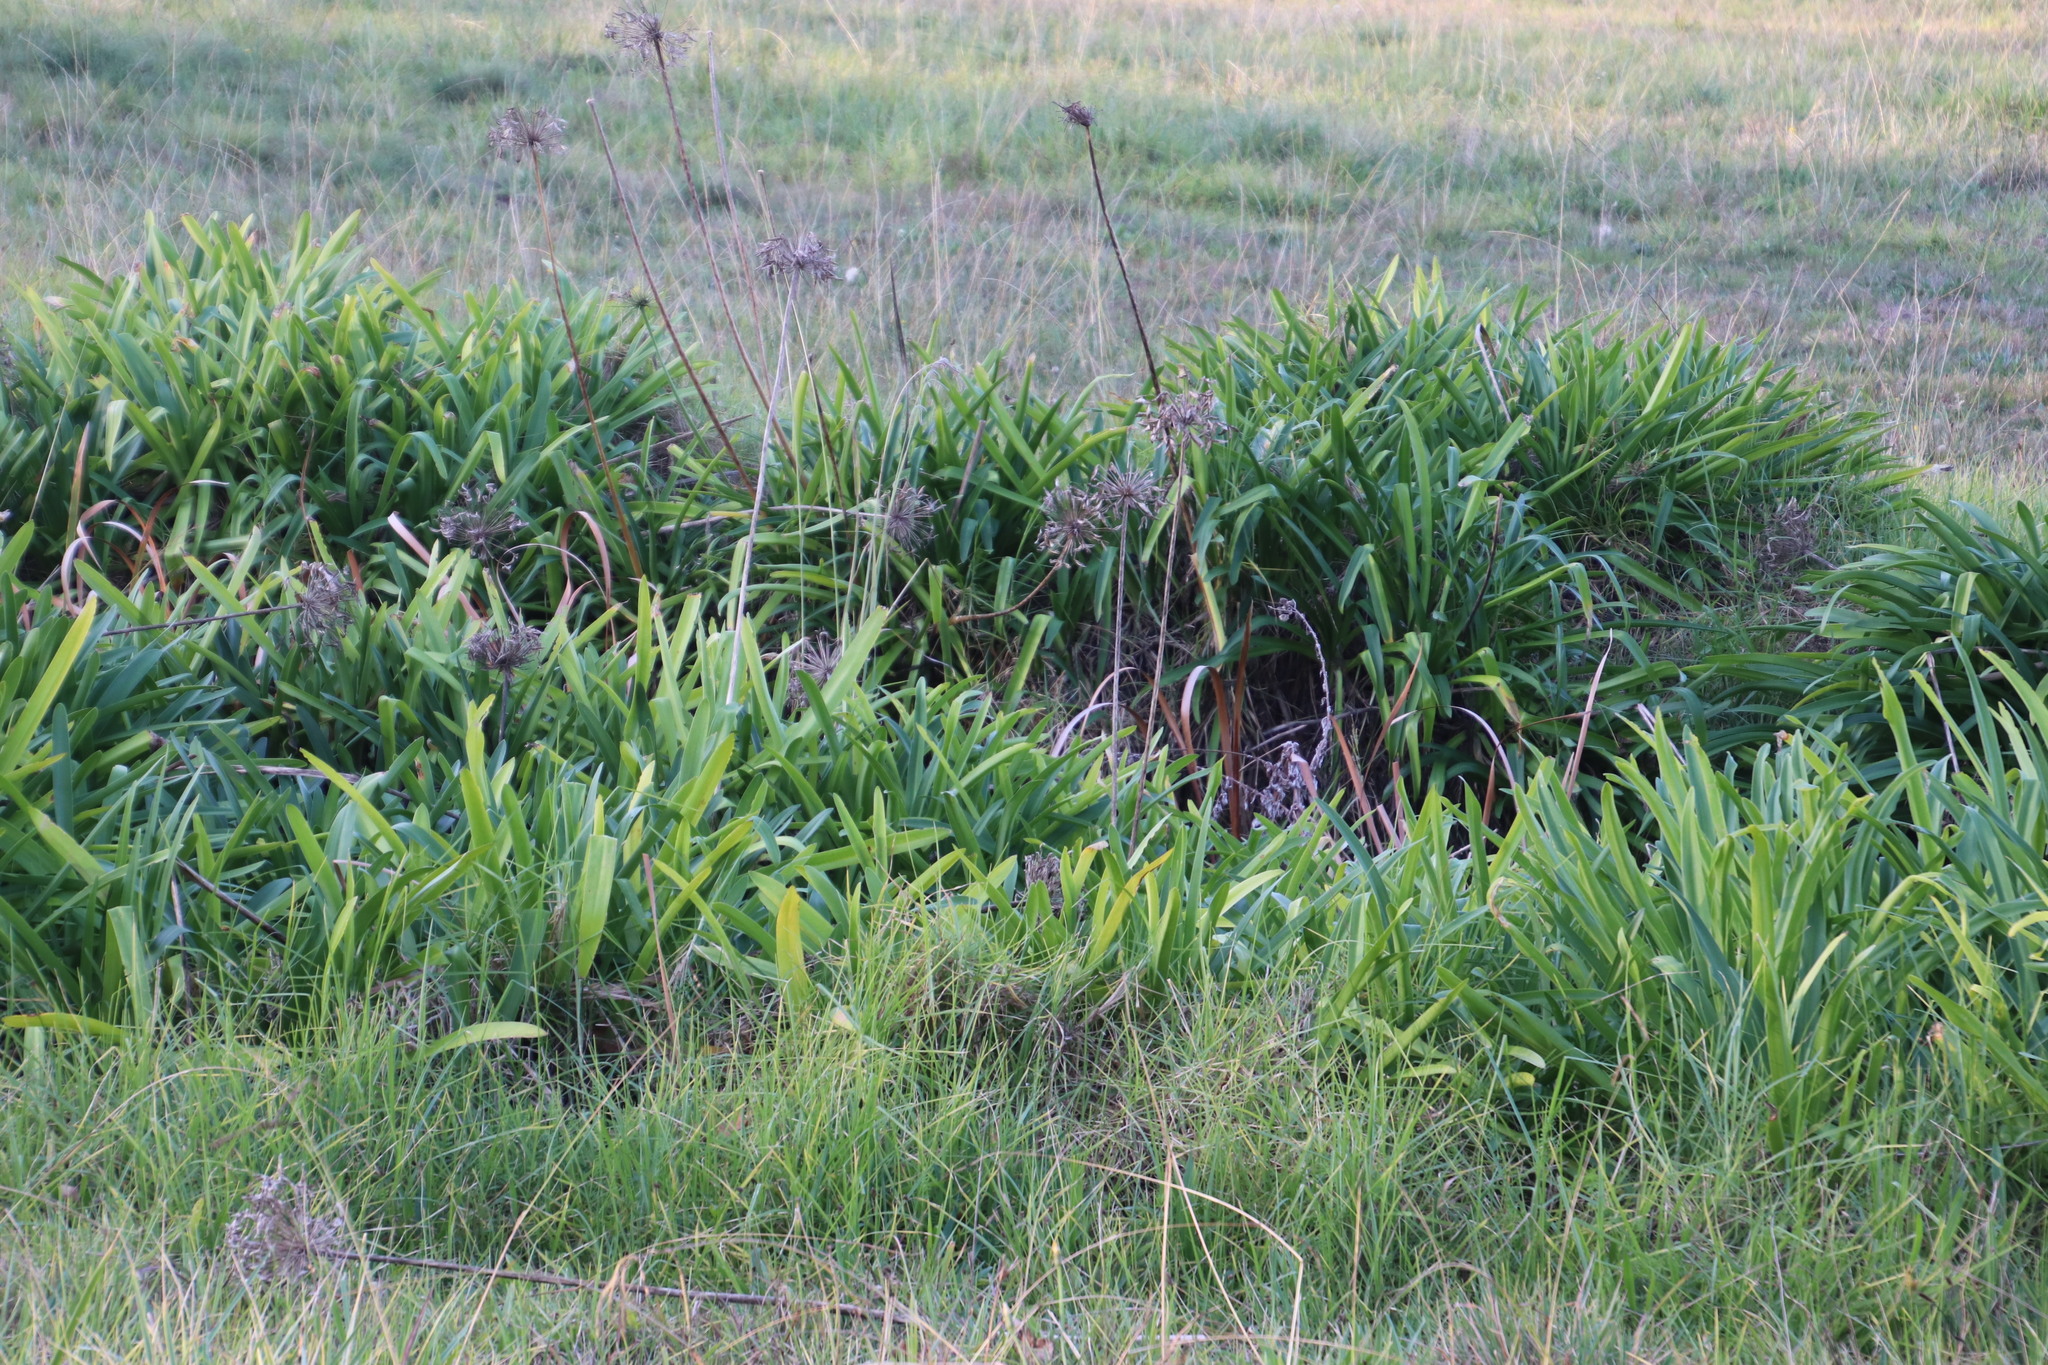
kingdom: Plantae
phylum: Tracheophyta
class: Liliopsida
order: Asparagales
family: Amaryllidaceae
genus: Agapanthus
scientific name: Agapanthus praecox
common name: African-lily
